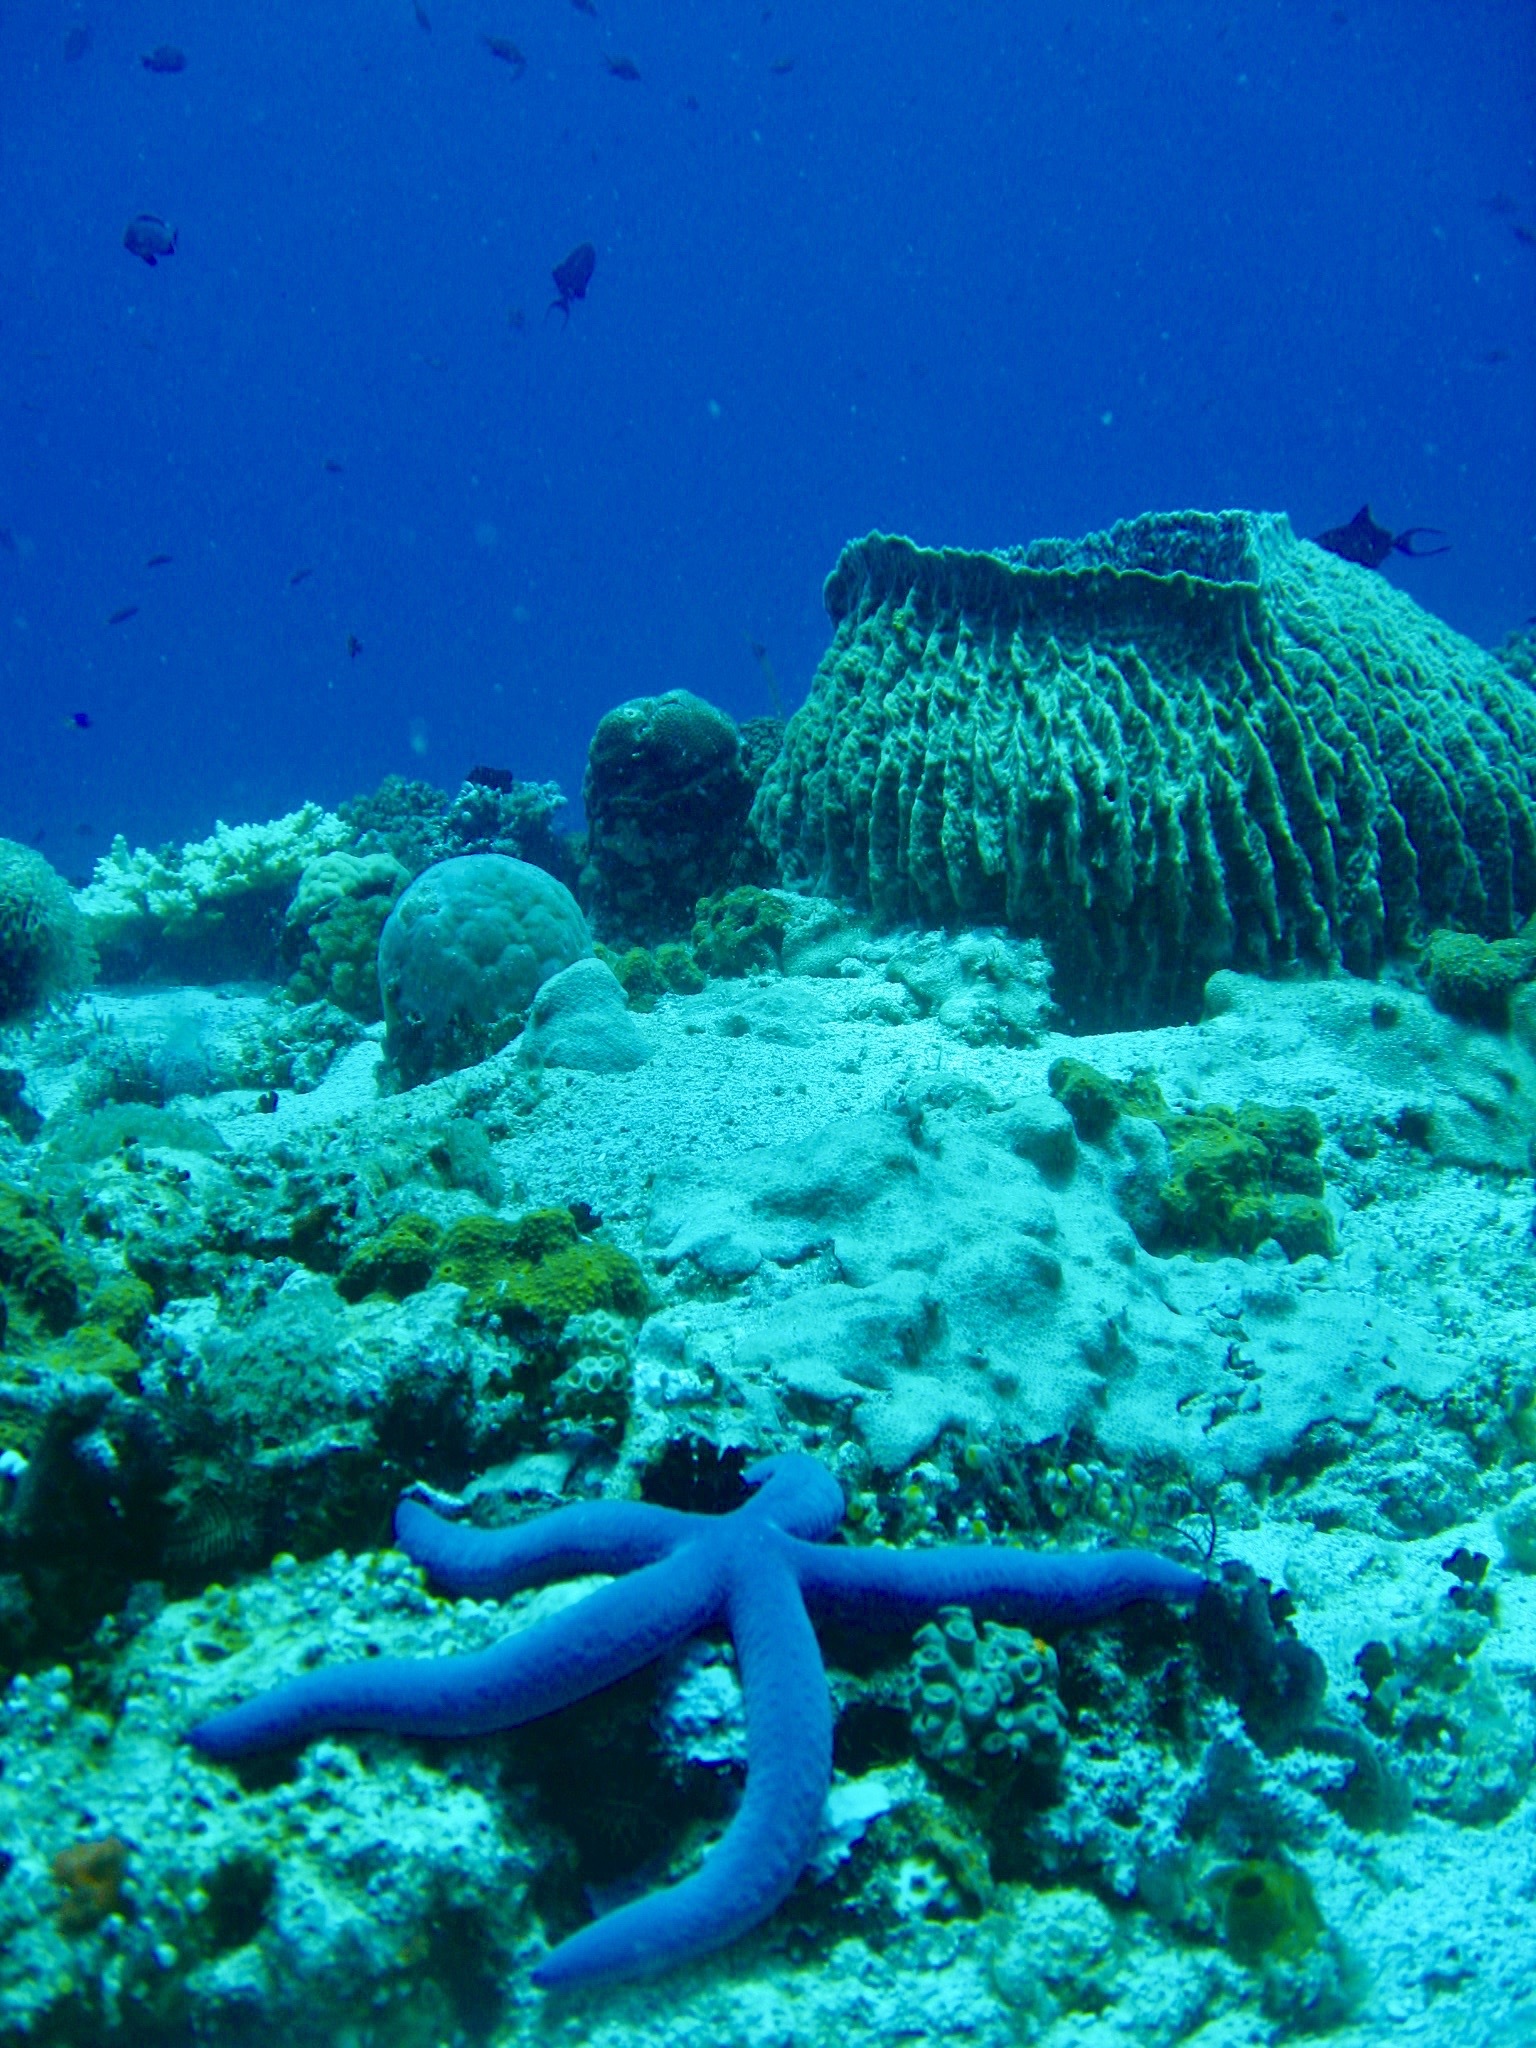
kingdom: Animalia
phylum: Echinodermata
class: Asteroidea
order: Valvatida
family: Ophidiasteridae
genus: Linckia
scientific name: Linckia laevigata
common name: Azure sea star
